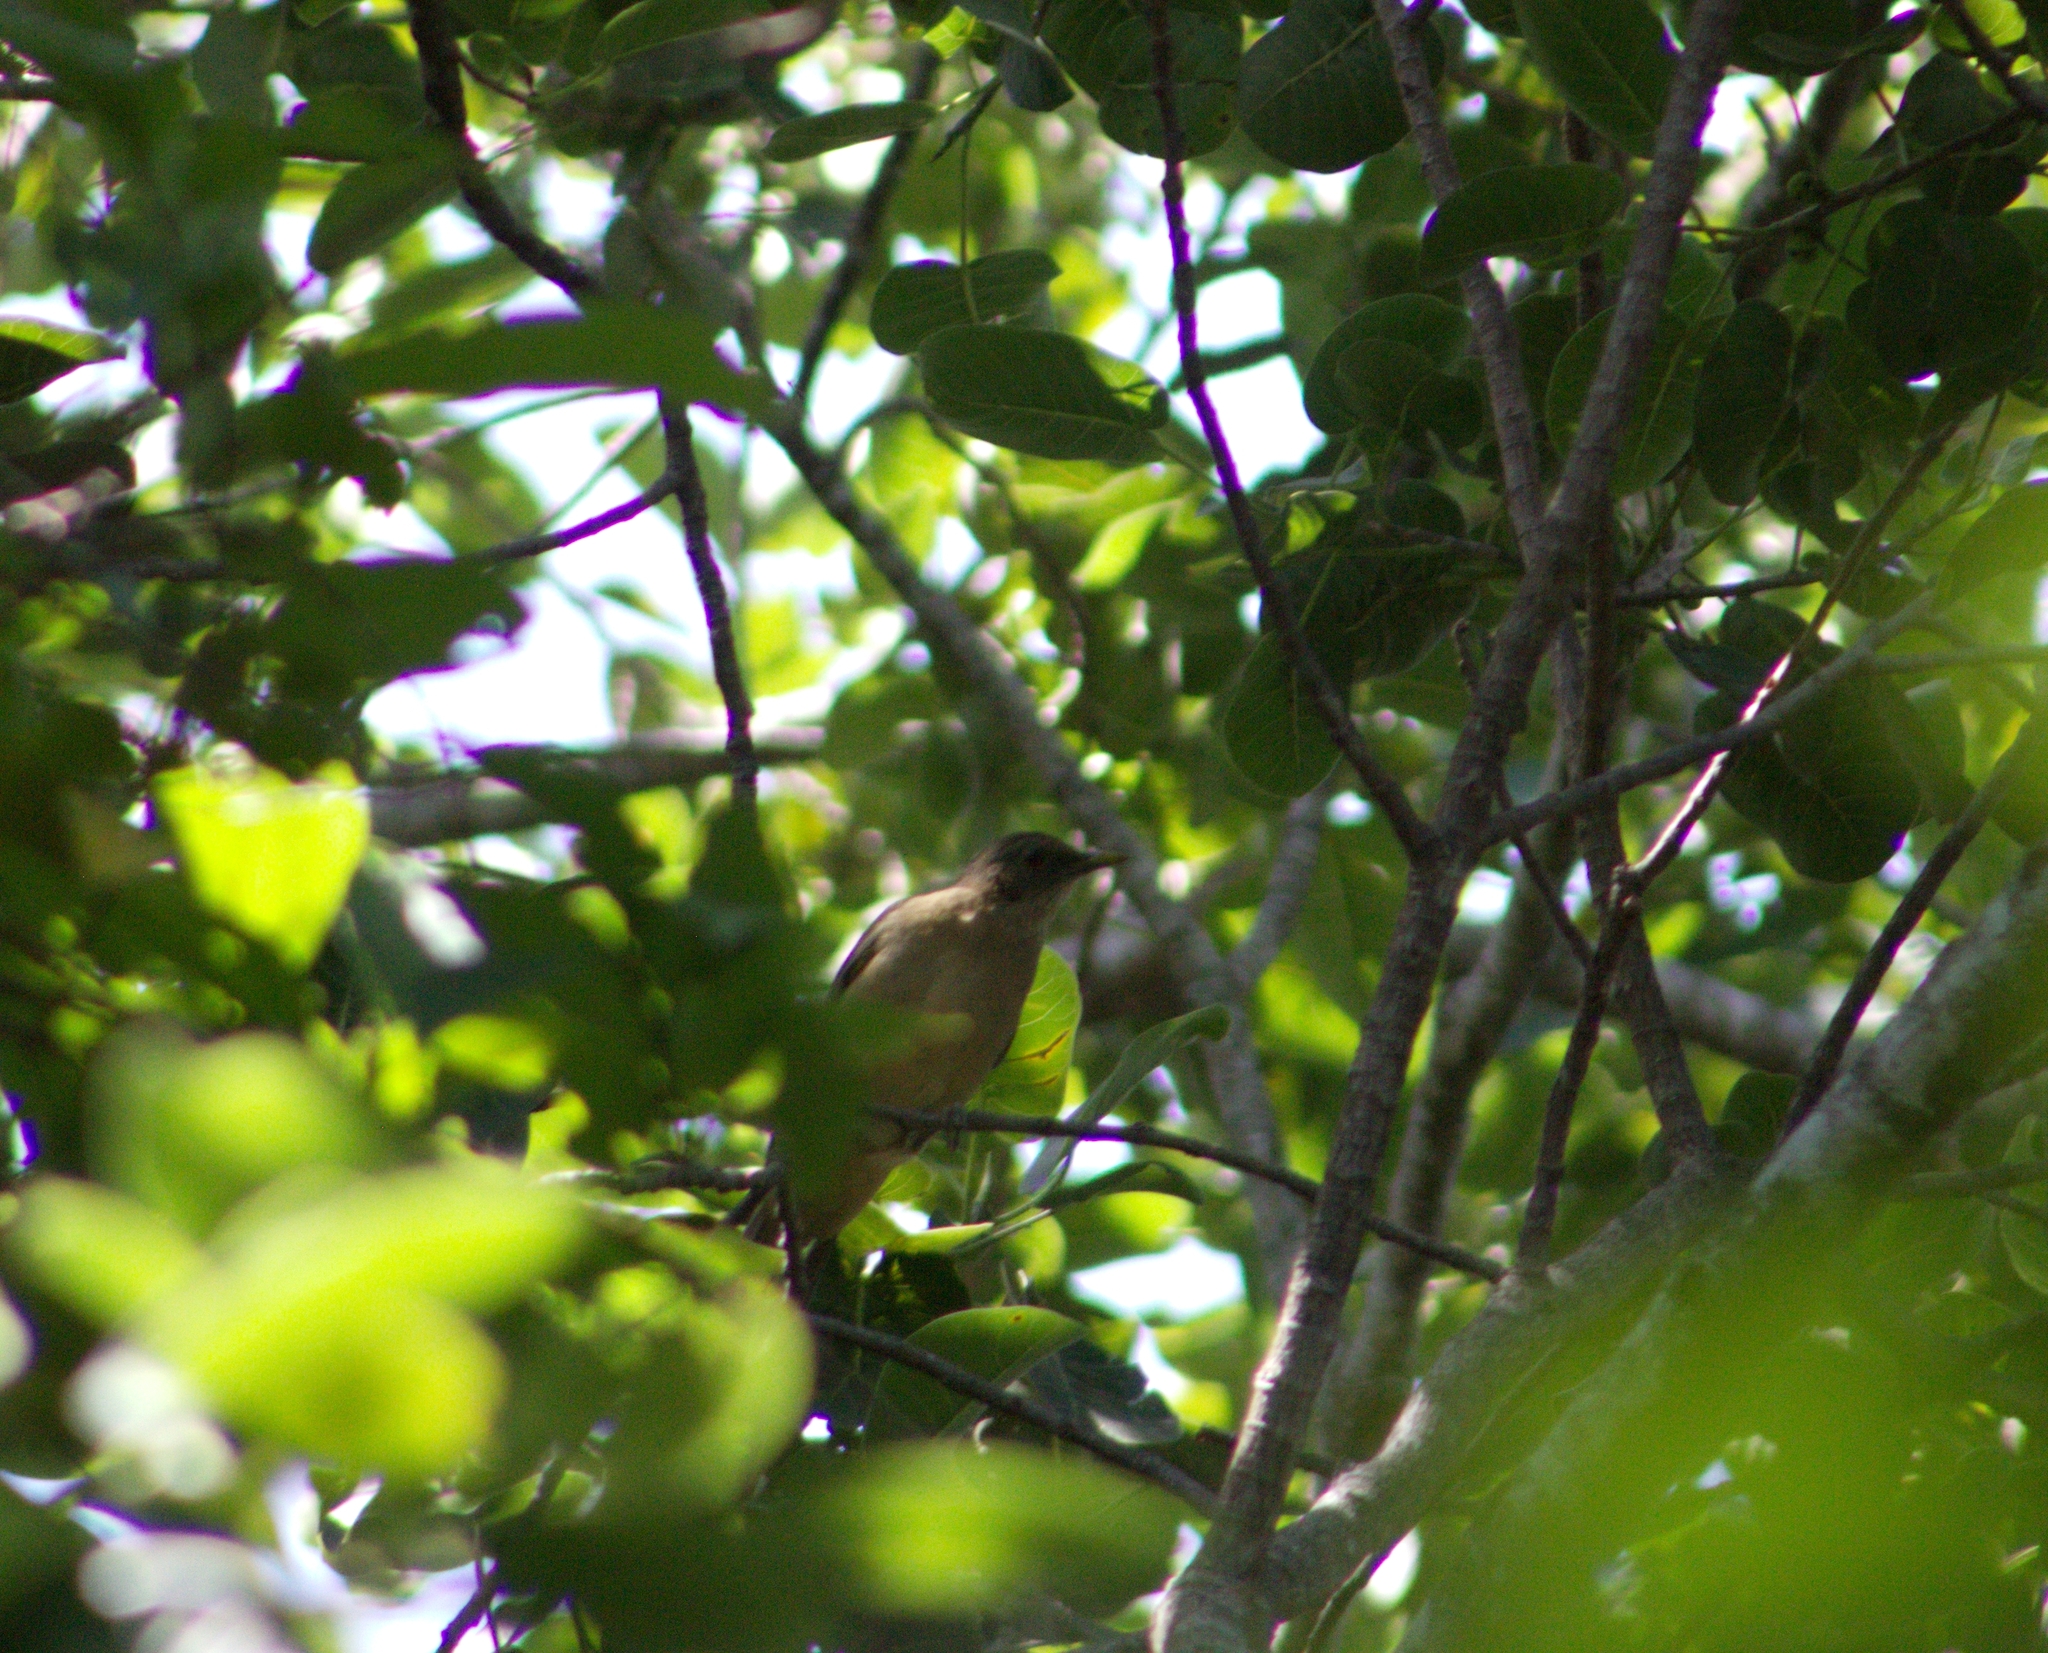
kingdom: Animalia
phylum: Chordata
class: Aves
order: Passeriformes
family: Turdidae
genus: Turdus
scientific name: Turdus grayi
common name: Clay-colored thrush
